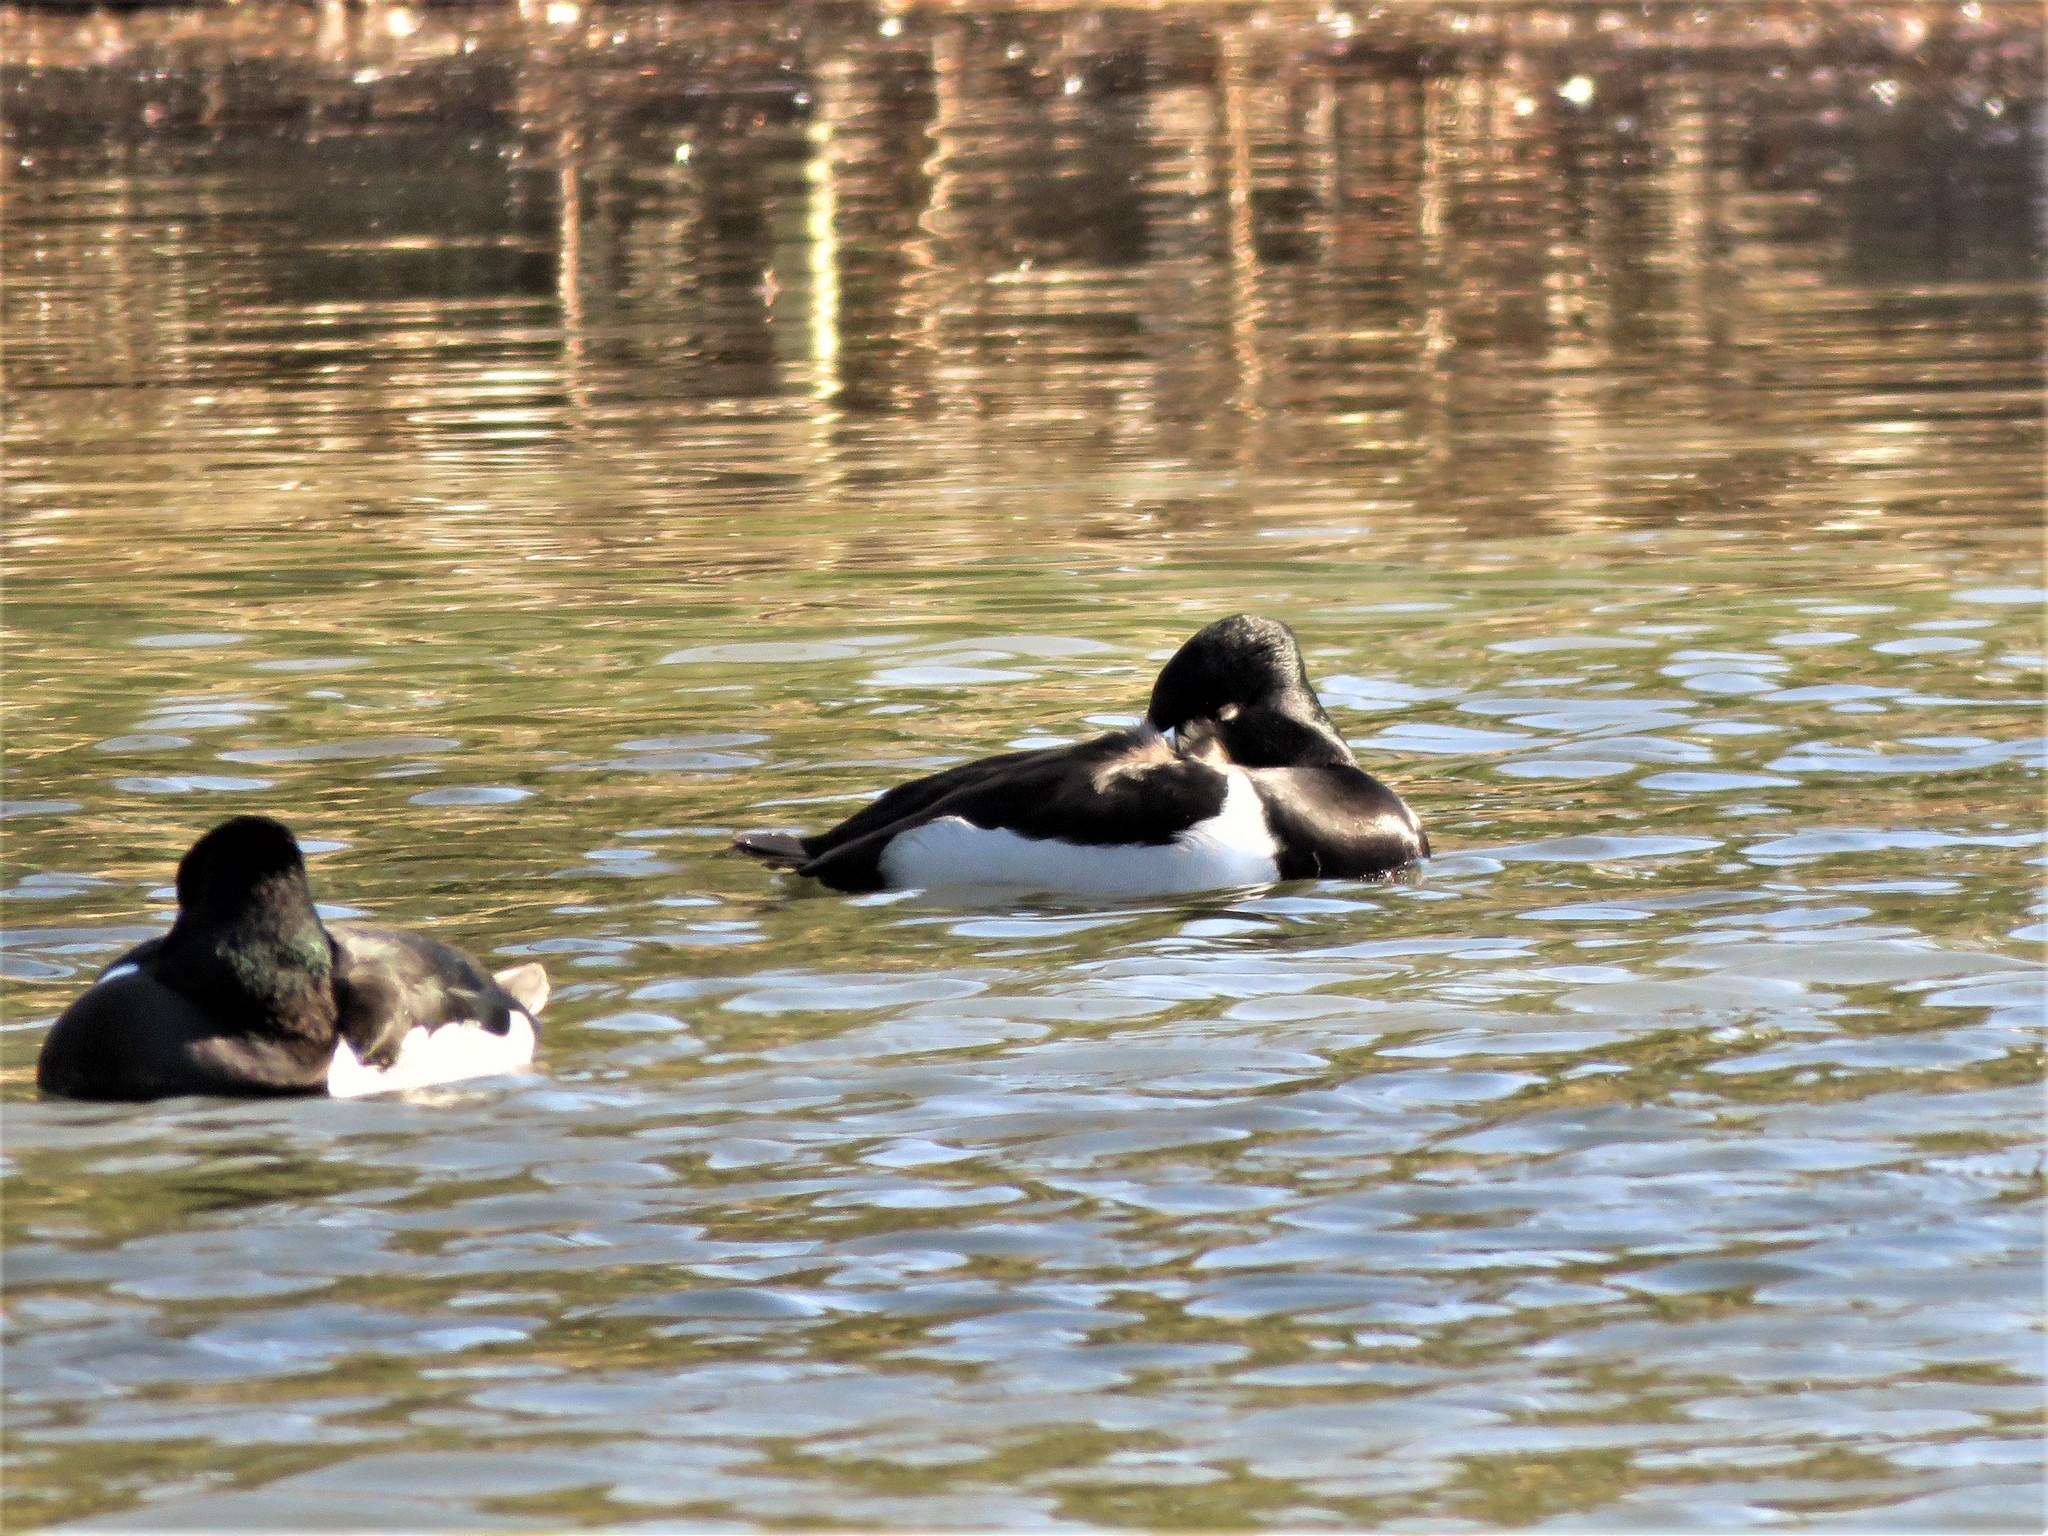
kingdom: Animalia
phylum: Chordata
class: Aves
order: Anseriformes
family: Anatidae
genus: Aythya
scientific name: Aythya collaris
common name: Ring-necked duck
